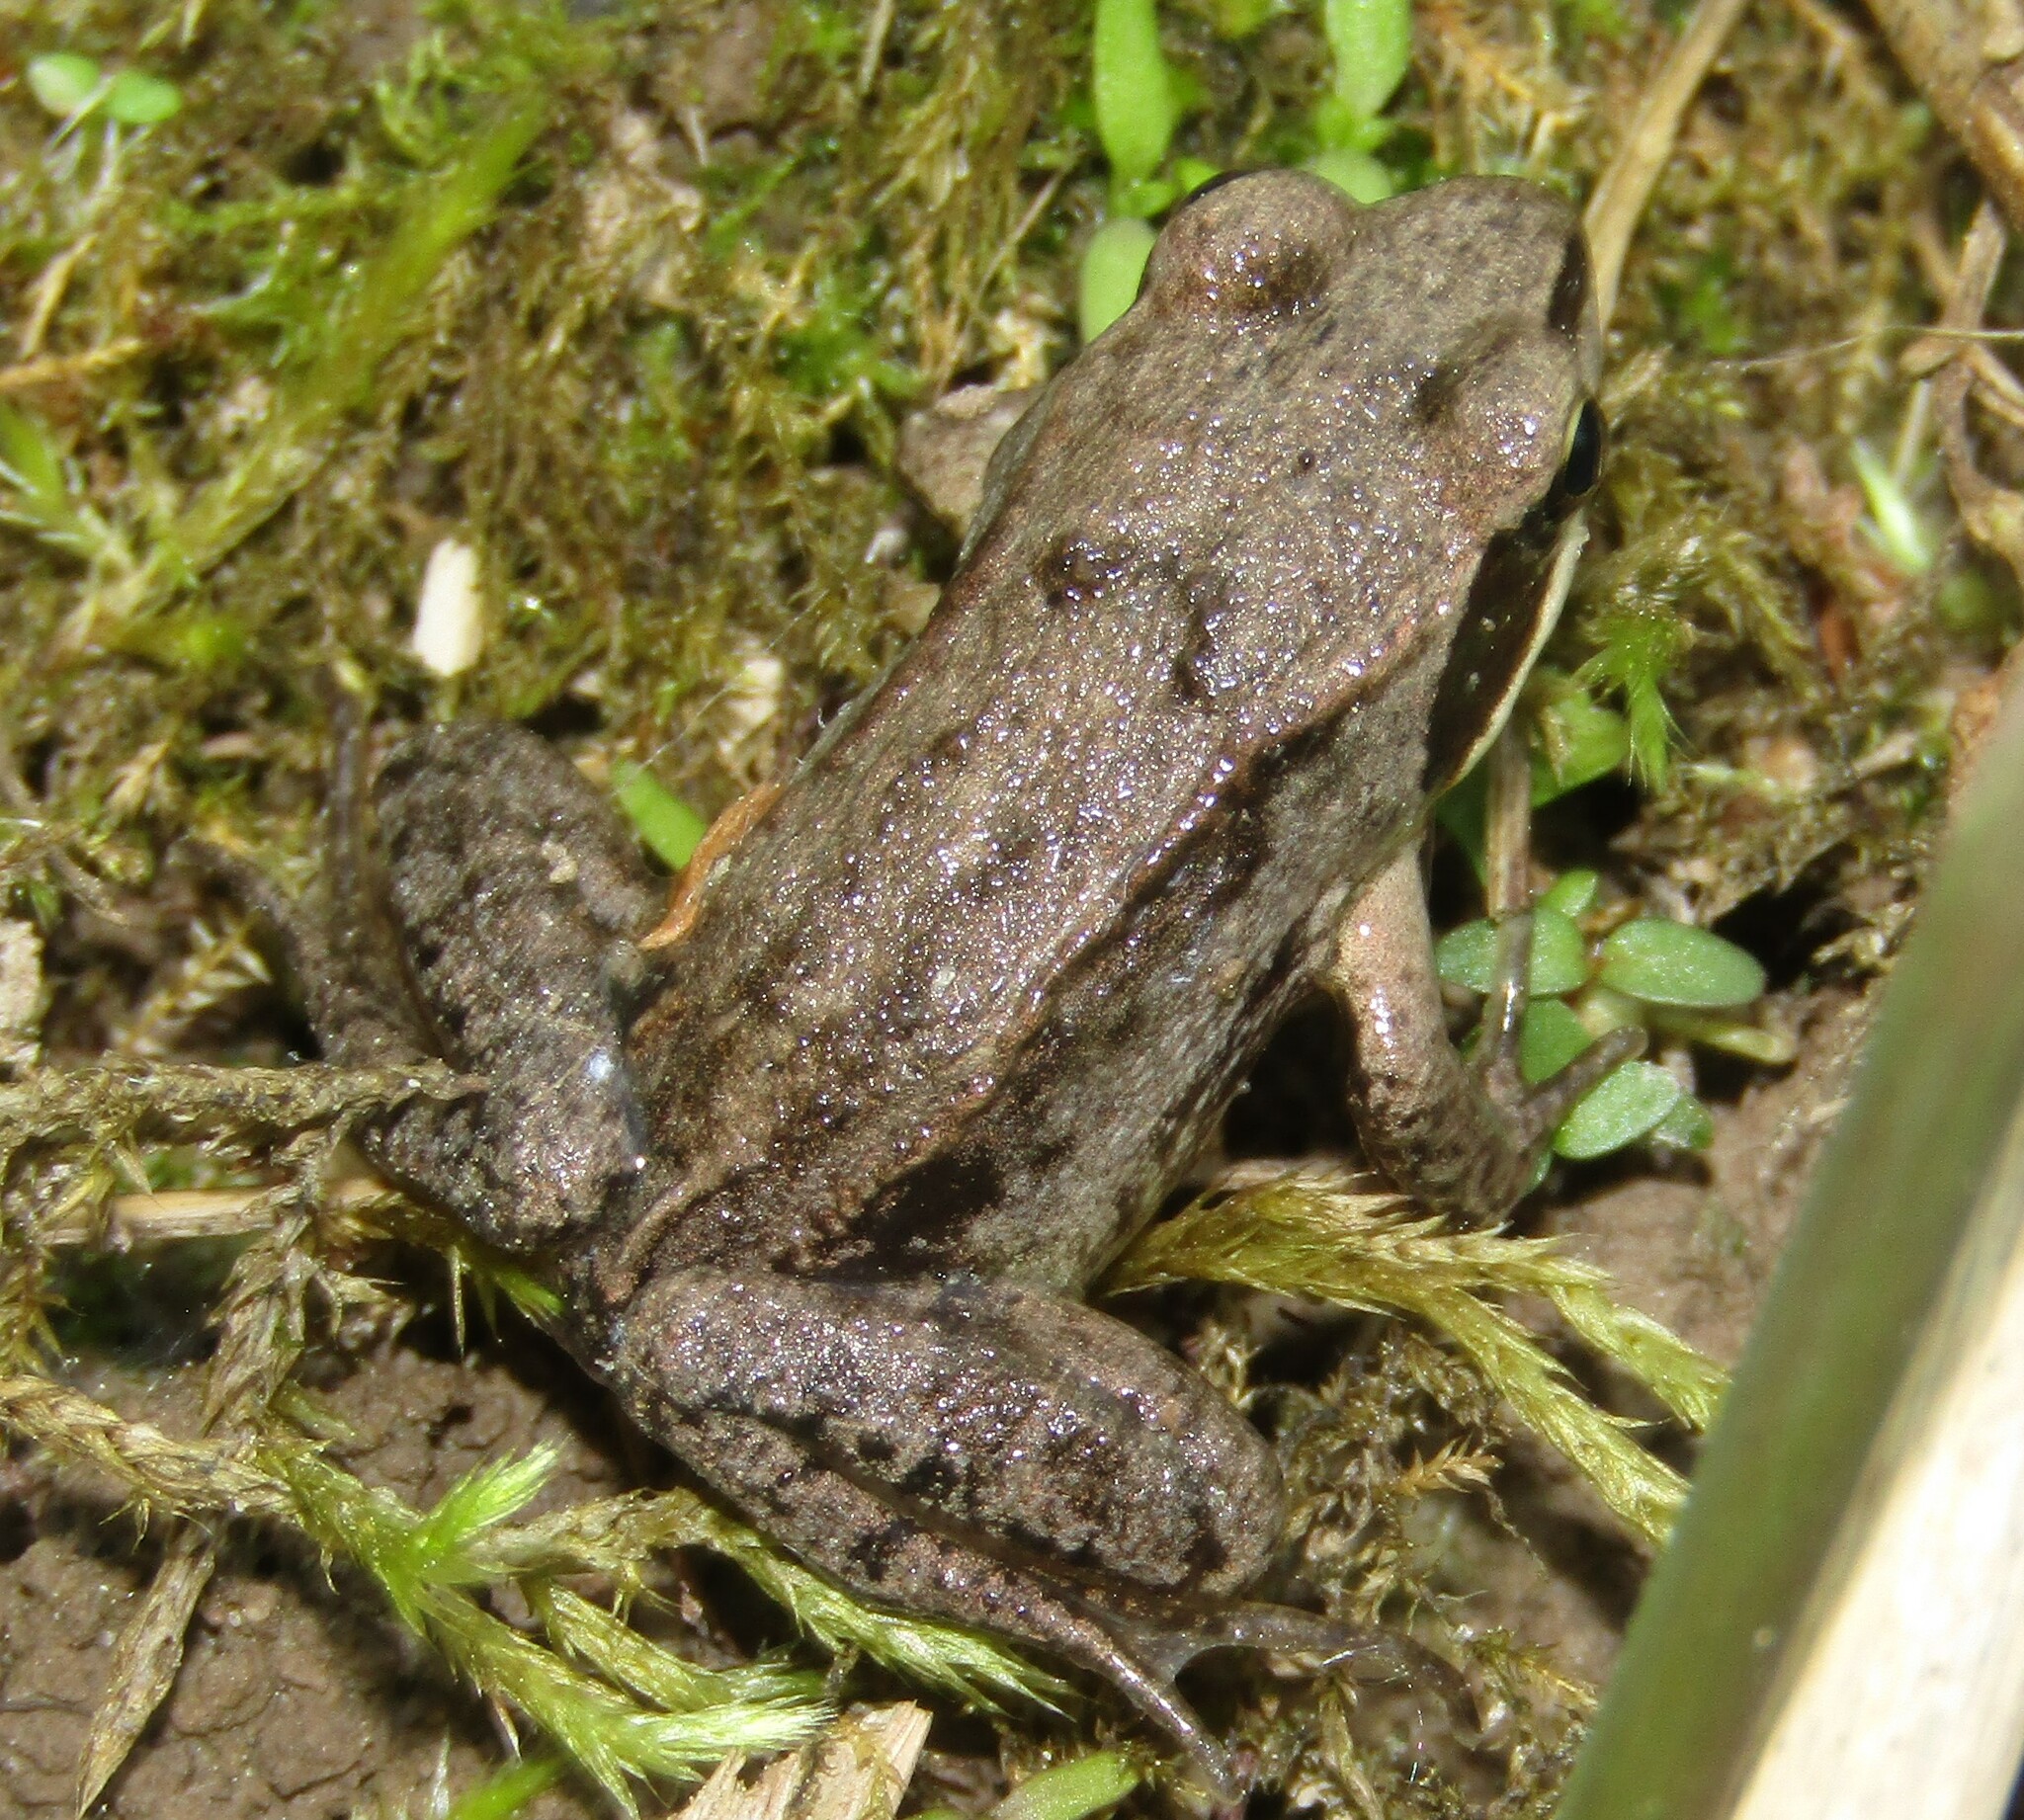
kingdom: Animalia
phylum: Chordata
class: Amphibia
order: Anura
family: Ranidae
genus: Rana
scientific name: Rana temporaria
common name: Common frog
